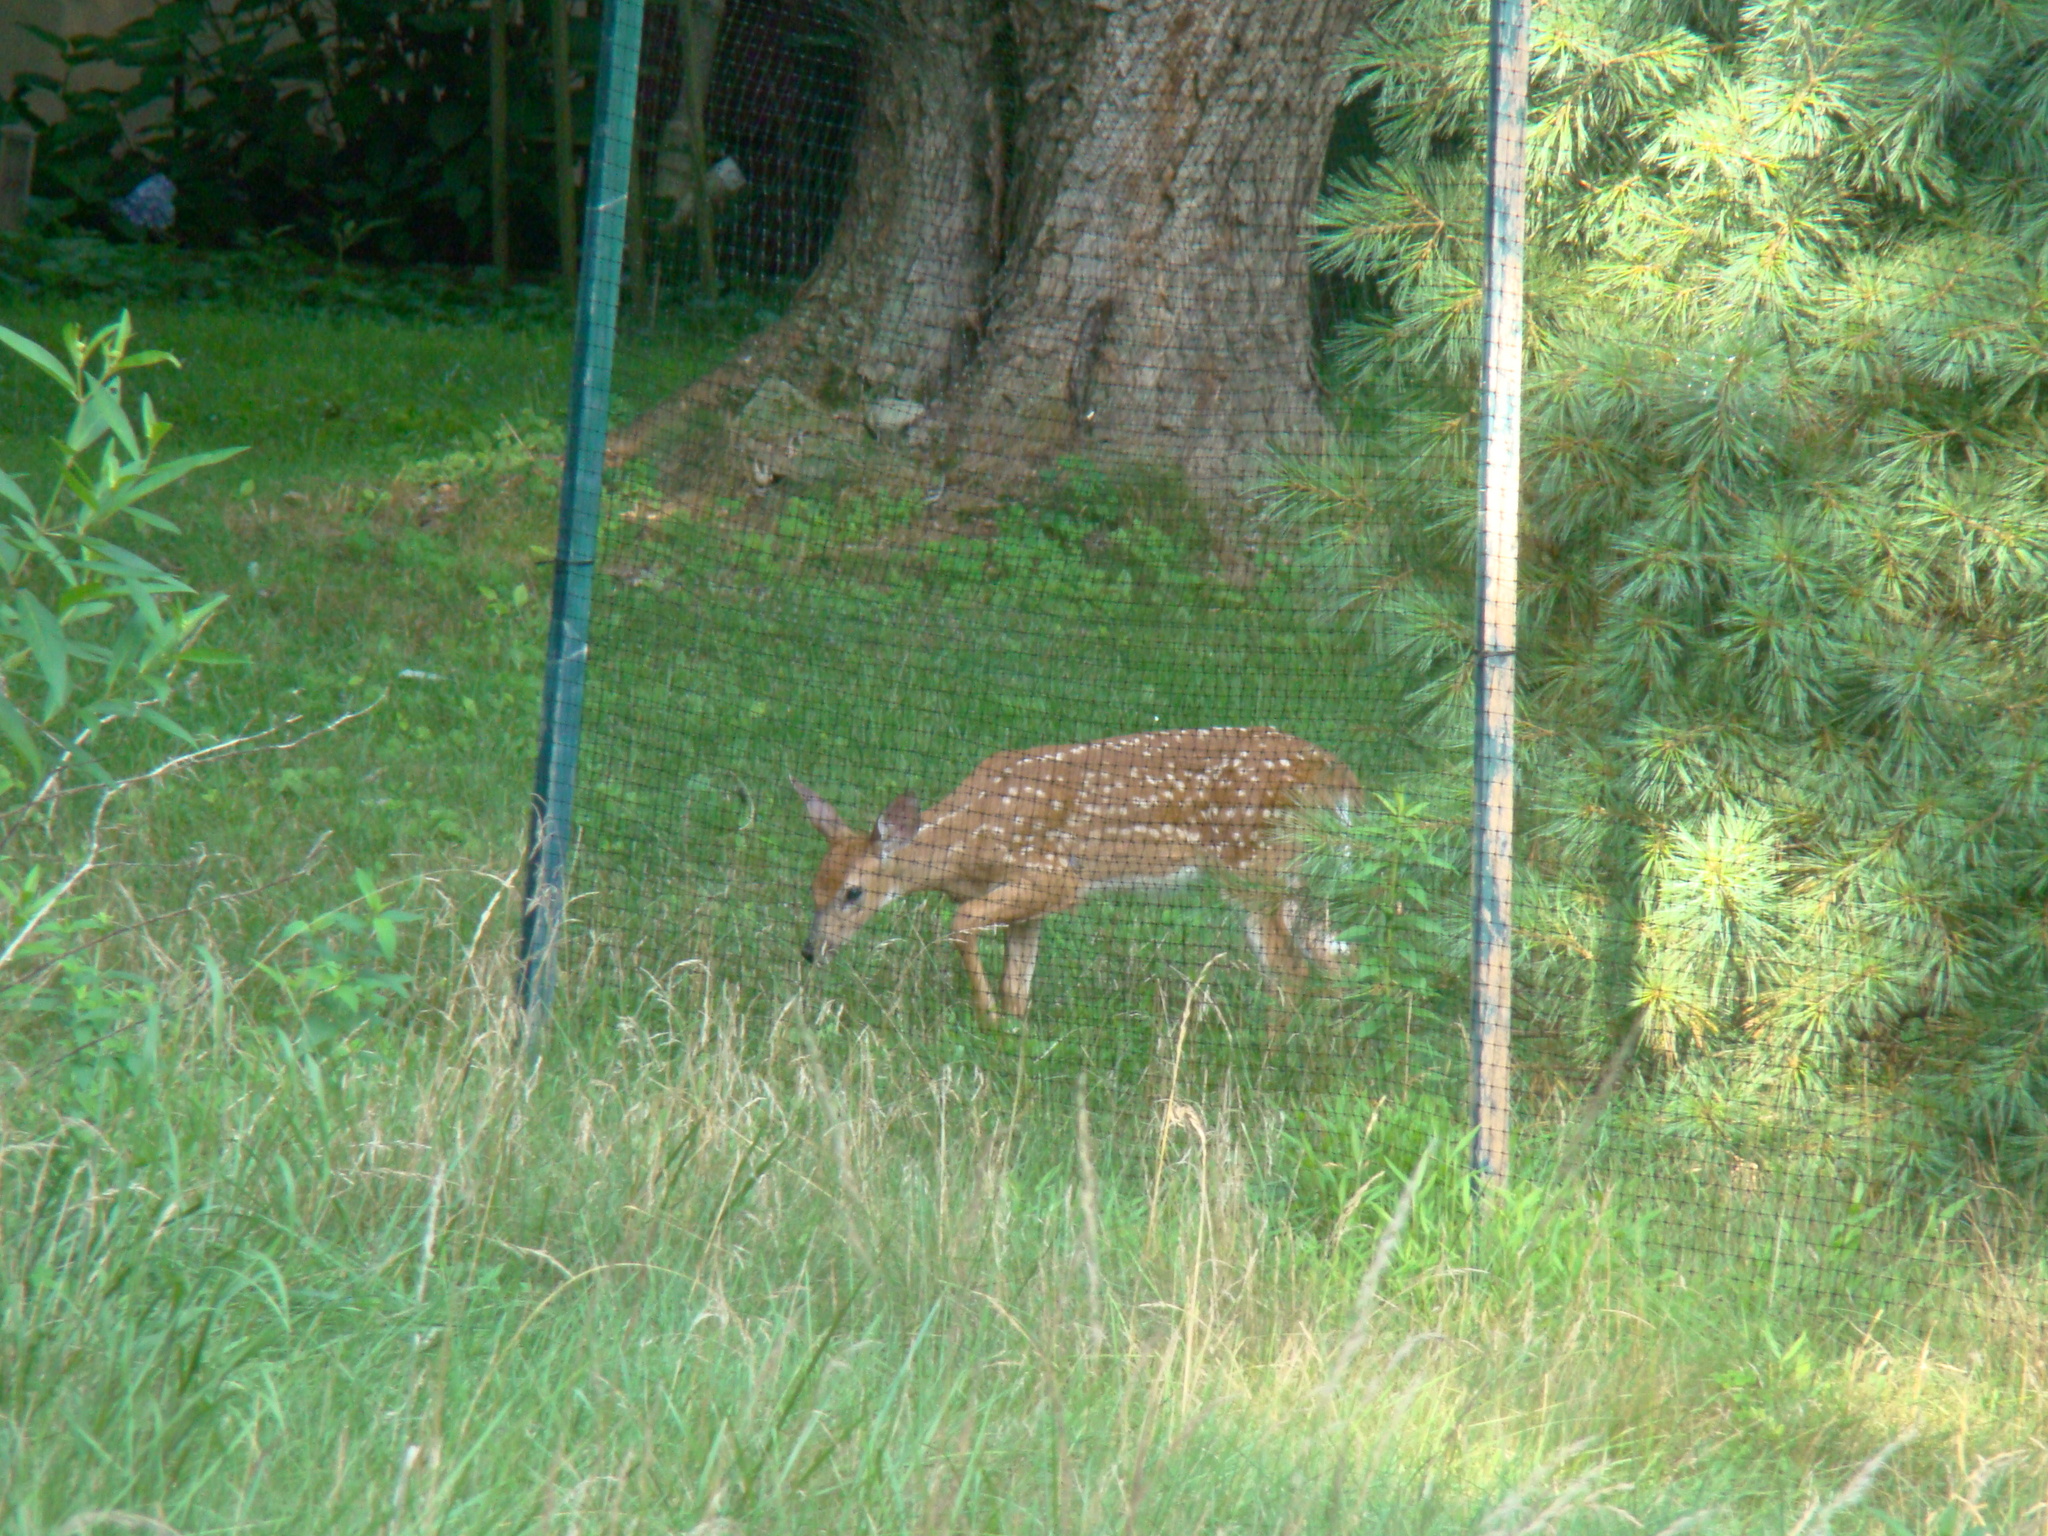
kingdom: Animalia
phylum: Chordata
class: Mammalia
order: Artiodactyla
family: Cervidae
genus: Odocoileus
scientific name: Odocoileus virginianus
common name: White-tailed deer
